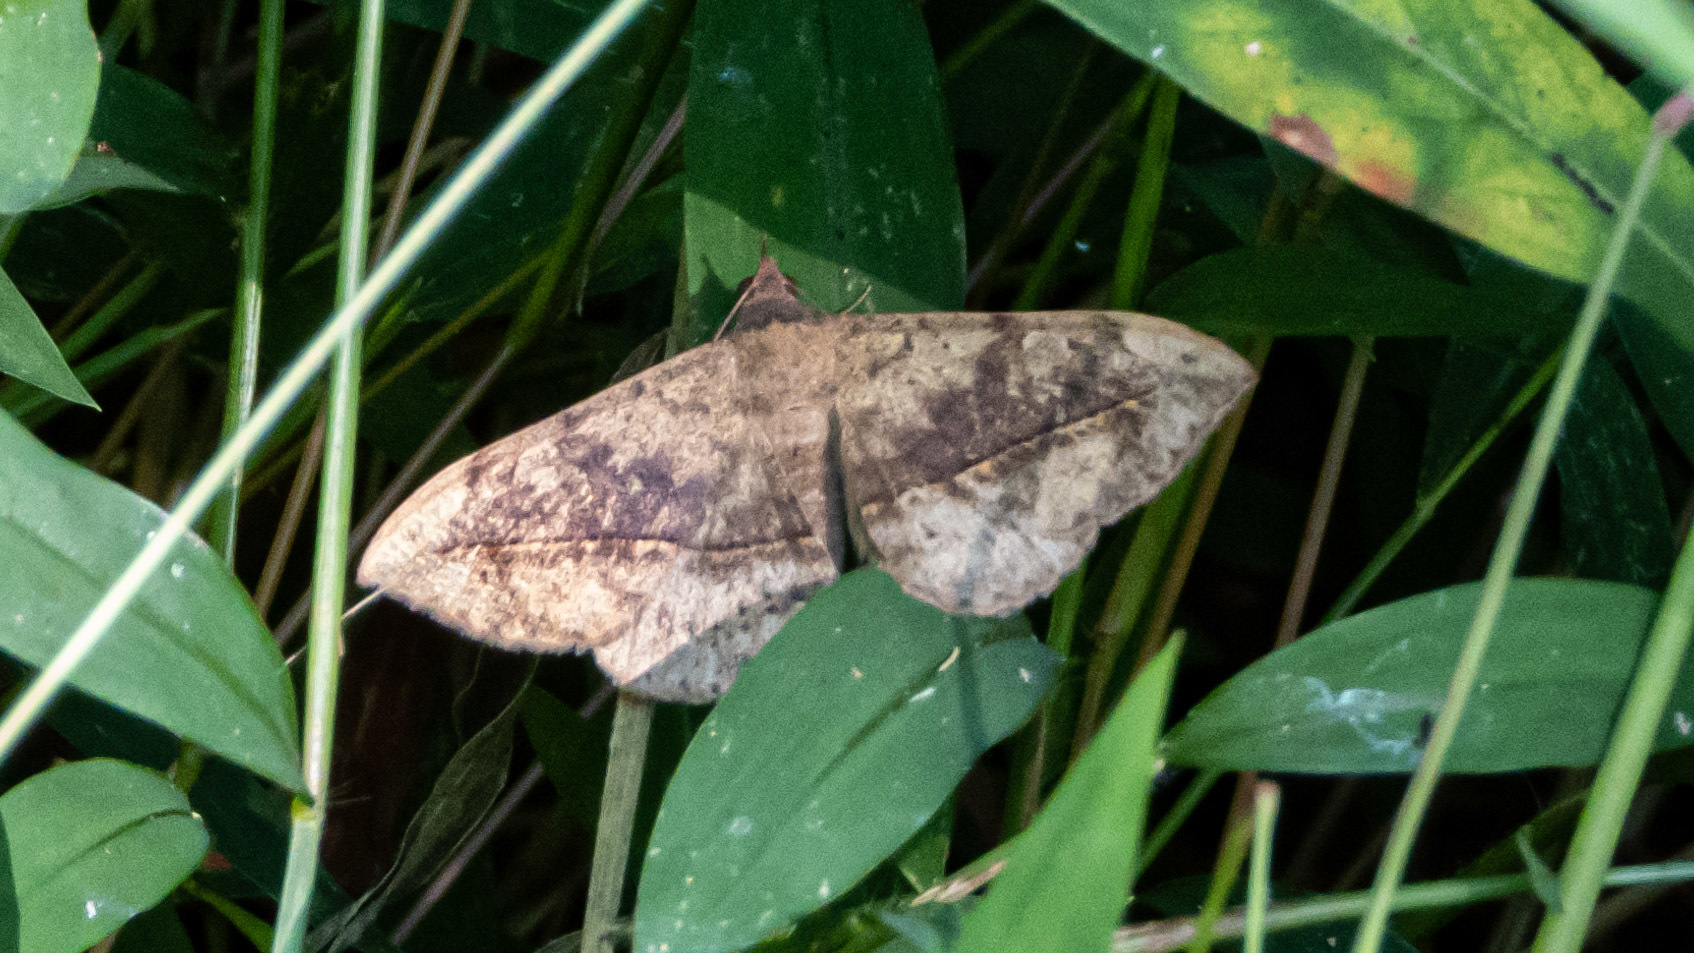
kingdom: Animalia
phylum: Arthropoda
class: Insecta
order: Lepidoptera
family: Erebidae
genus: Anticarsia
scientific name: Anticarsia gemmatalis
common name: Cutworm moth
